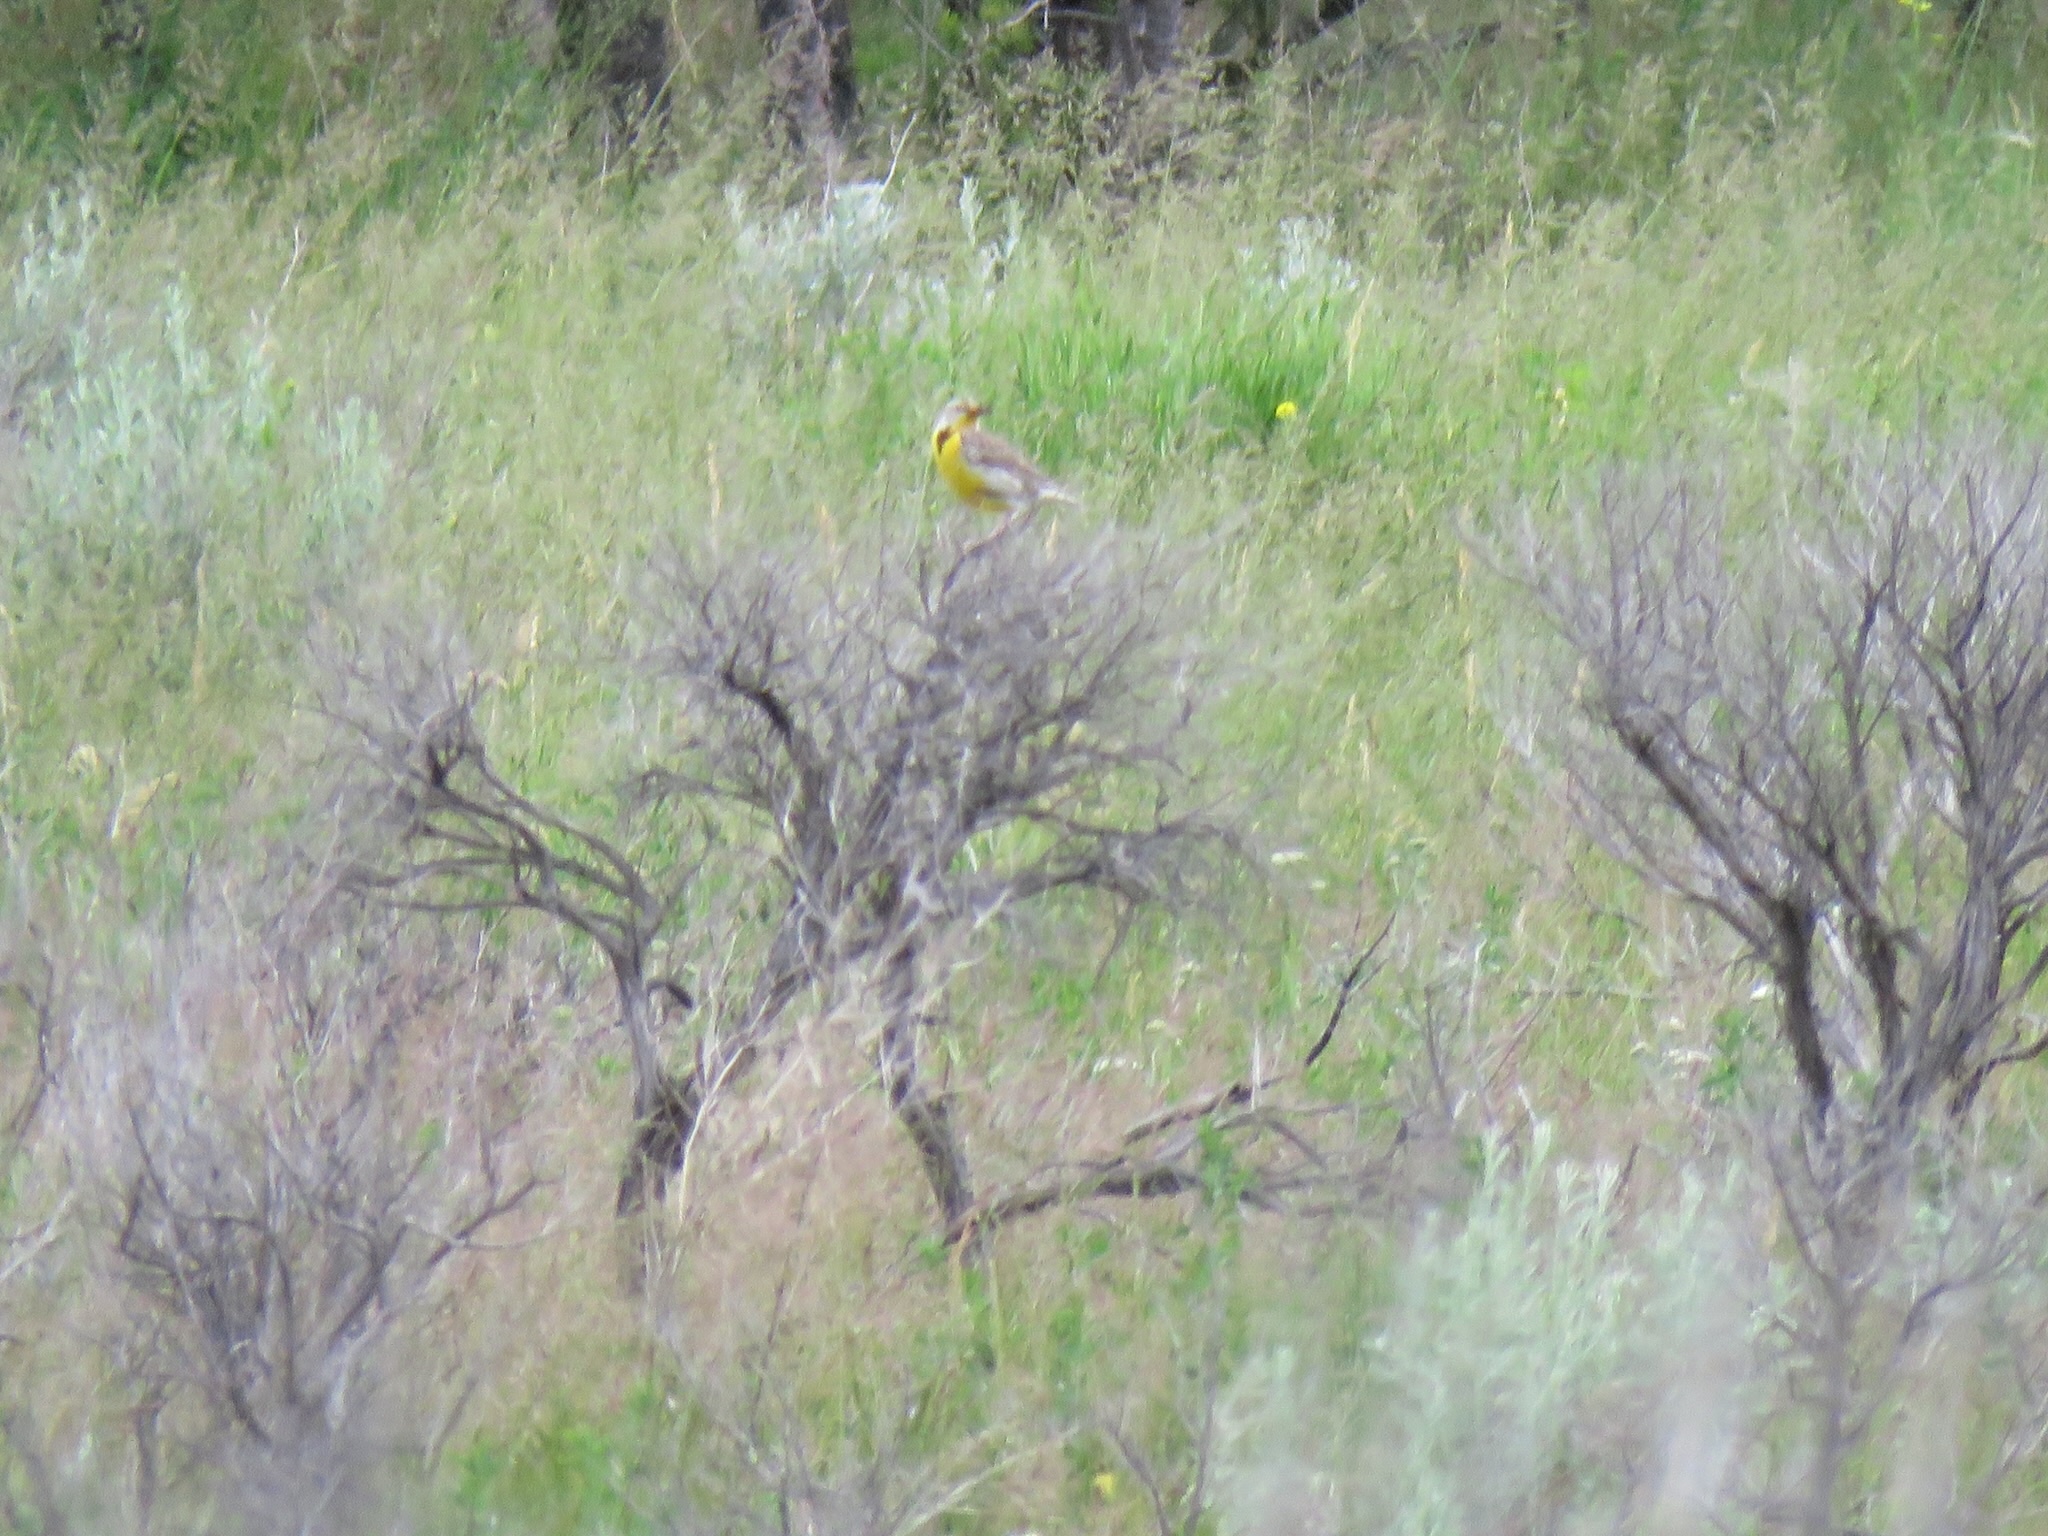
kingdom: Animalia
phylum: Chordata
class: Aves
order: Passeriformes
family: Icteridae
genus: Sturnella
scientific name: Sturnella neglecta
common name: Western meadowlark
